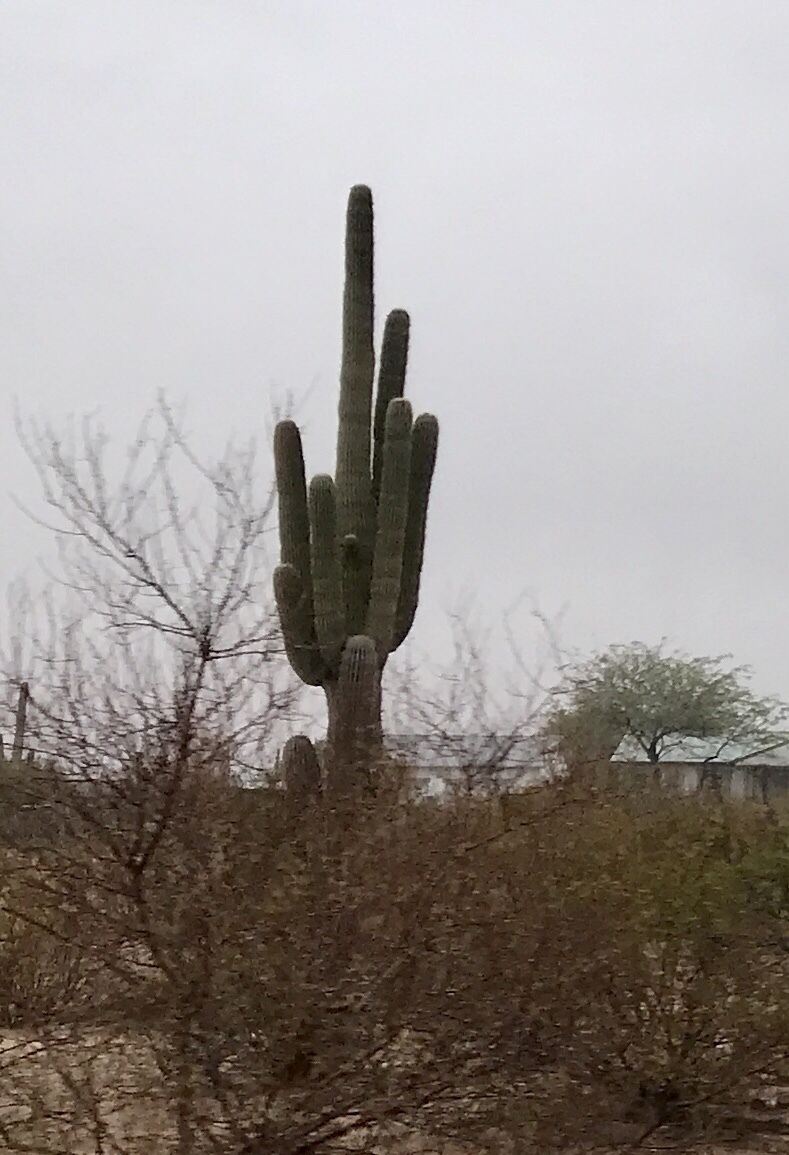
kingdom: Plantae
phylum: Tracheophyta
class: Magnoliopsida
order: Caryophyllales
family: Cactaceae
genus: Carnegiea
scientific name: Carnegiea gigantea
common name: Saguaro
